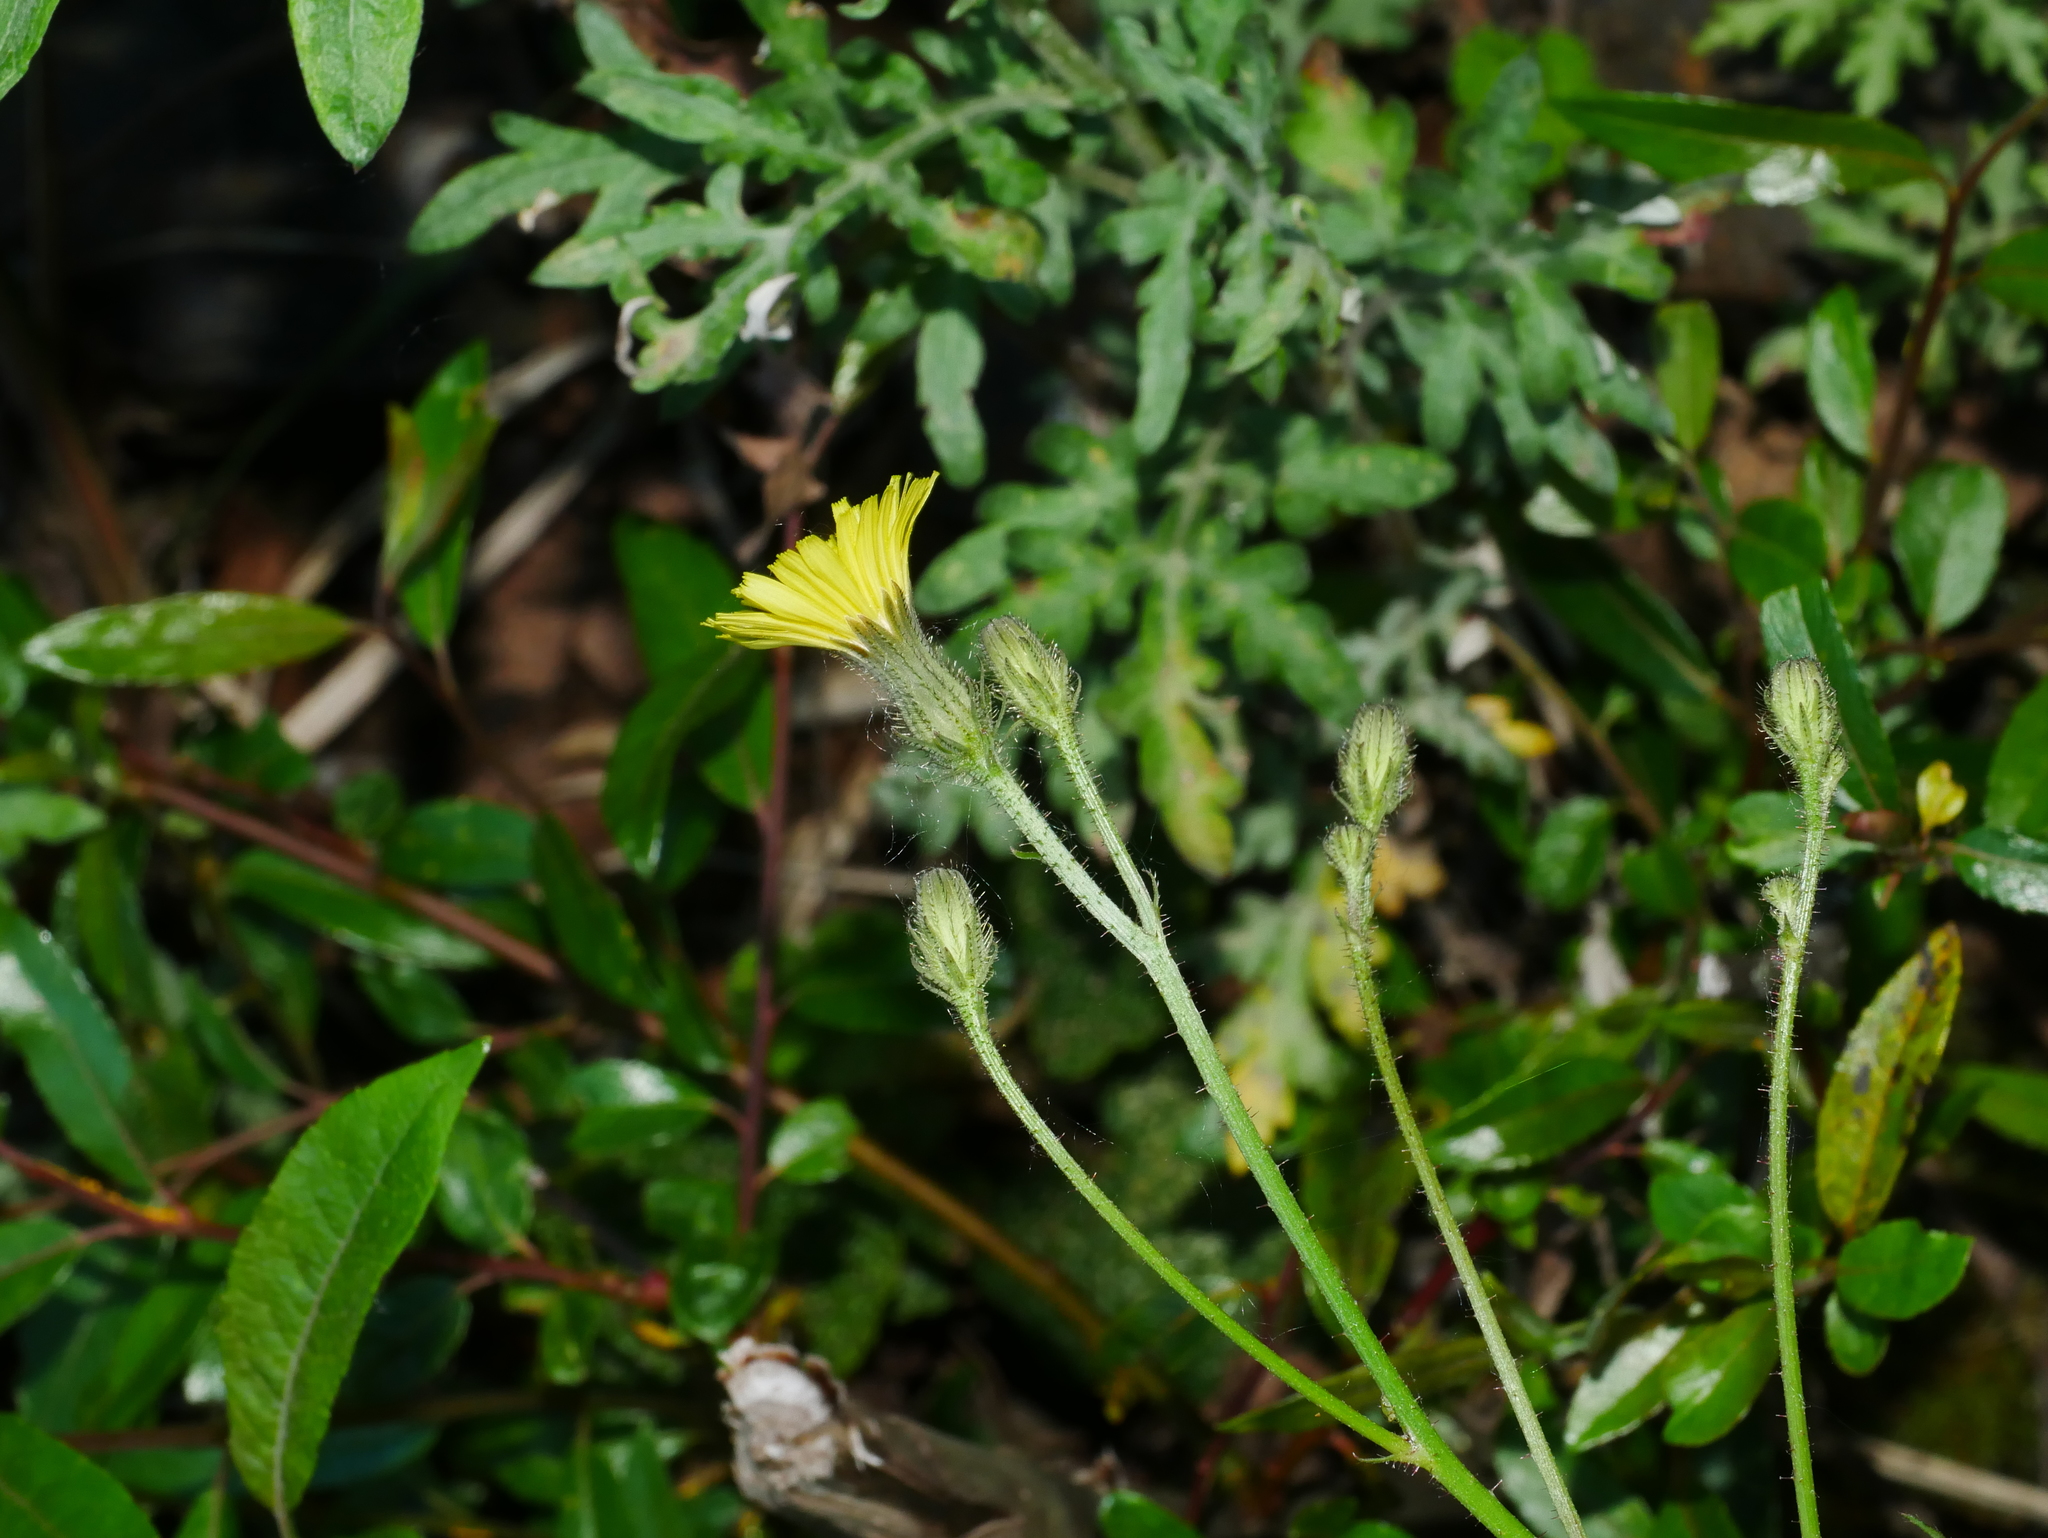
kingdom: Plantae
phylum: Tracheophyta
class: Magnoliopsida
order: Asterales
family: Asteraceae
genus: Picris
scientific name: Picris angustifolia
